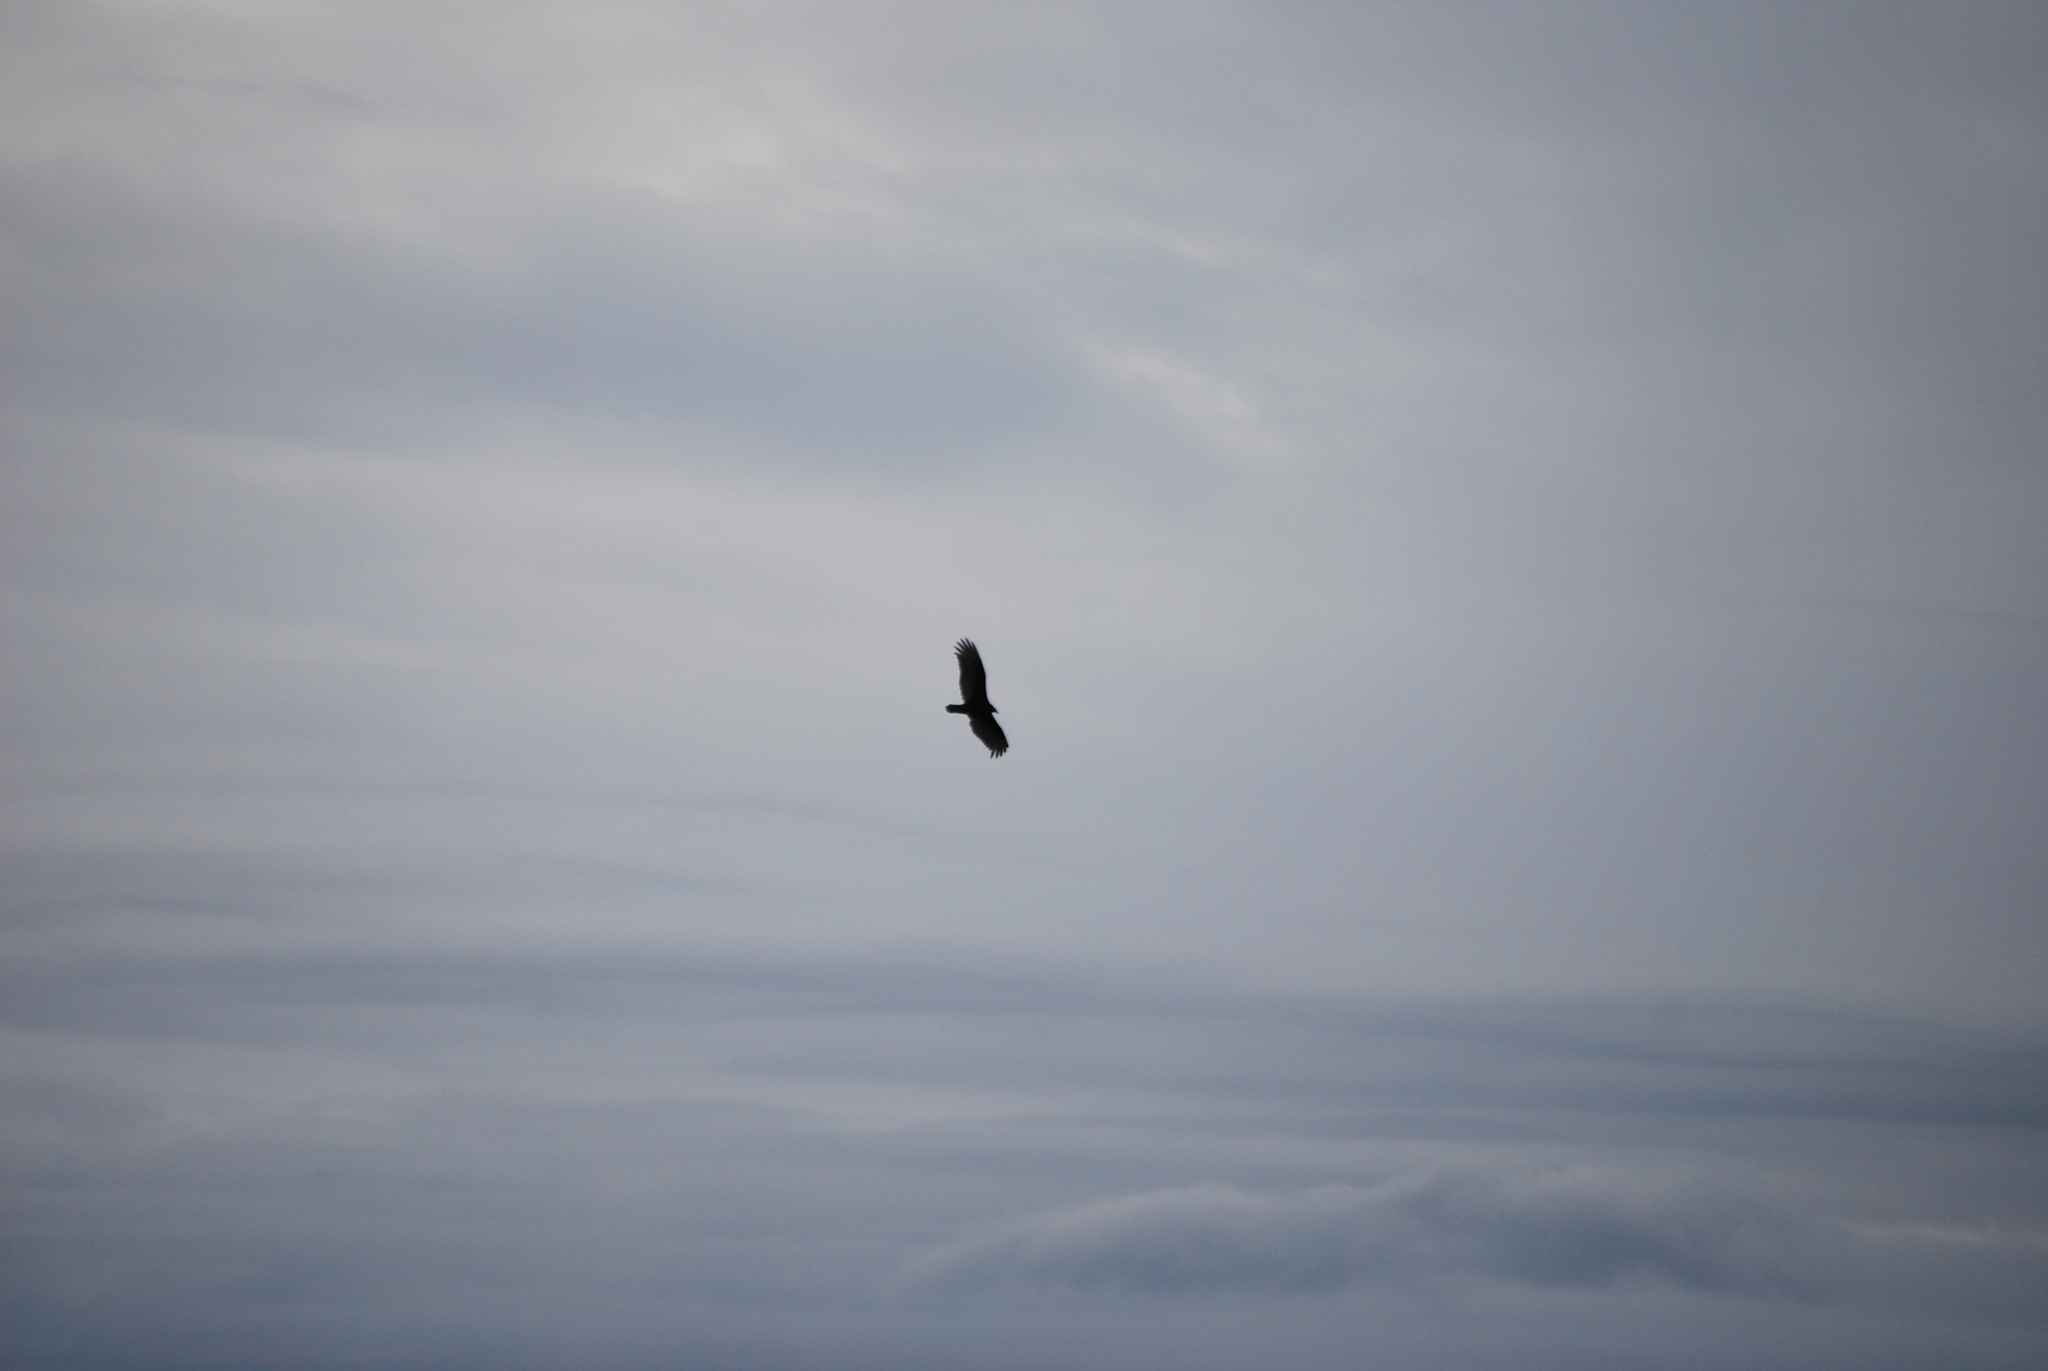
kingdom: Animalia
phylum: Chordata
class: Aves
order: Accipitriformes
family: Cathartidae
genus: Cathartes
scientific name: Cathartes aura
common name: Turkey vulture
